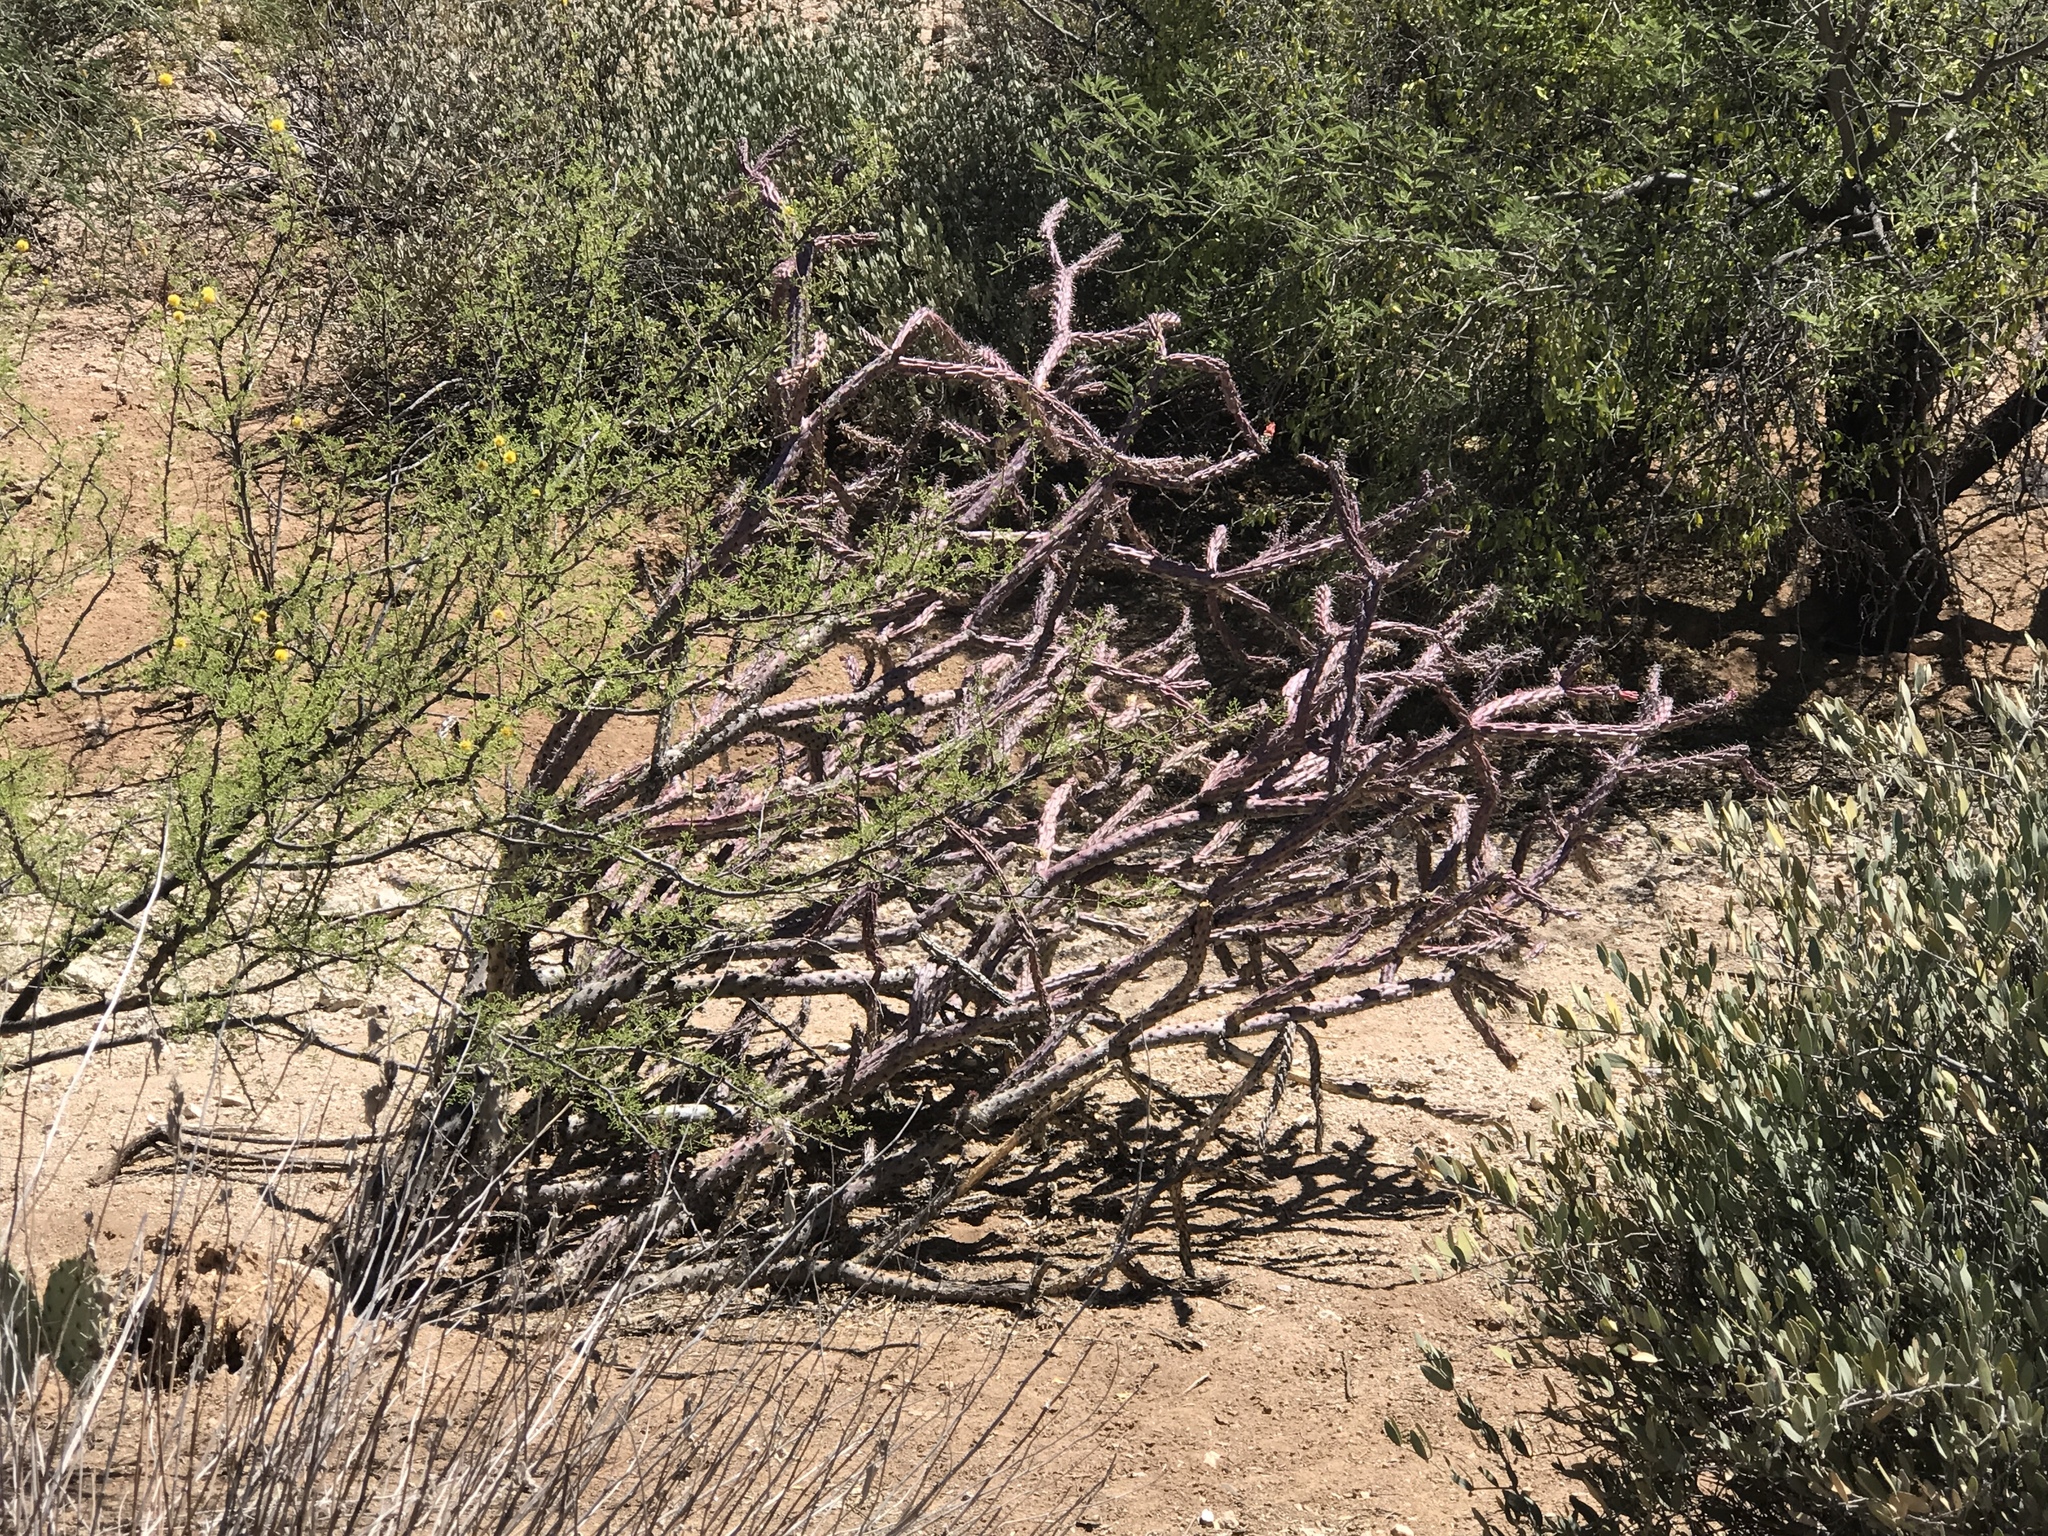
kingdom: Plantae
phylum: Tracheophyta
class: Magnoliopsida
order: Caryophyllales
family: Cactaceae
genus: Cylindropuntia
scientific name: Cylindropuntia thurberi
